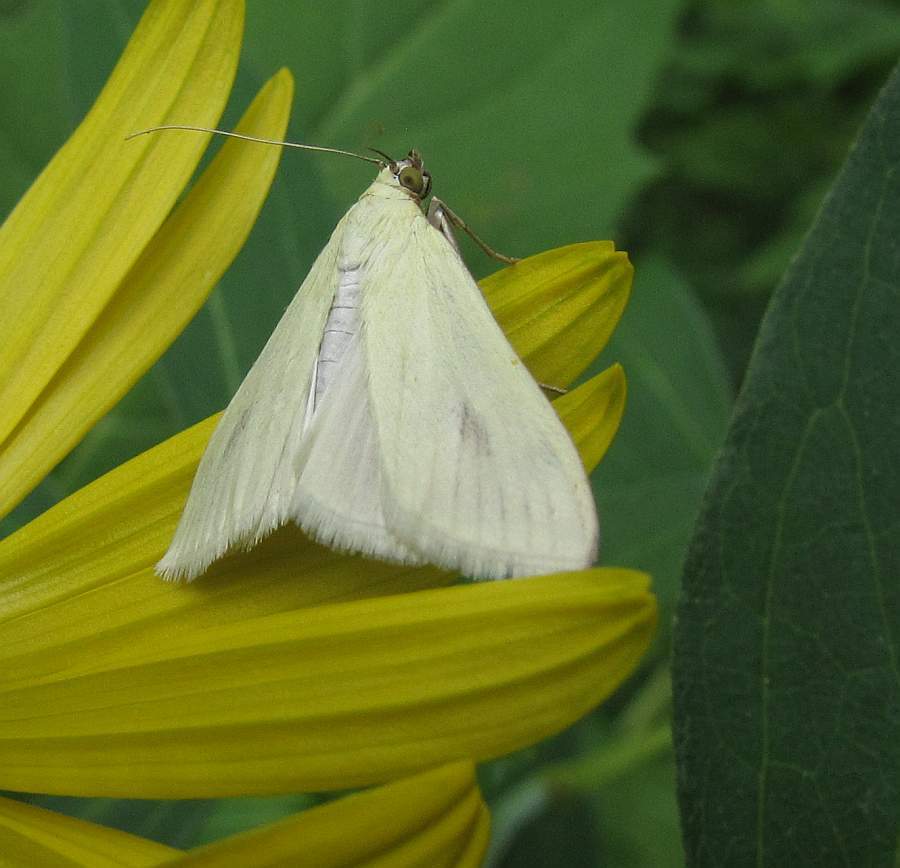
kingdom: Animalia
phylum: Arthropoda
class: Insecta
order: Lepidoptera
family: Crambidae
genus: Sitochroa
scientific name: Sitochroa palealis
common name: Greenish-yellow sitochroa moth
